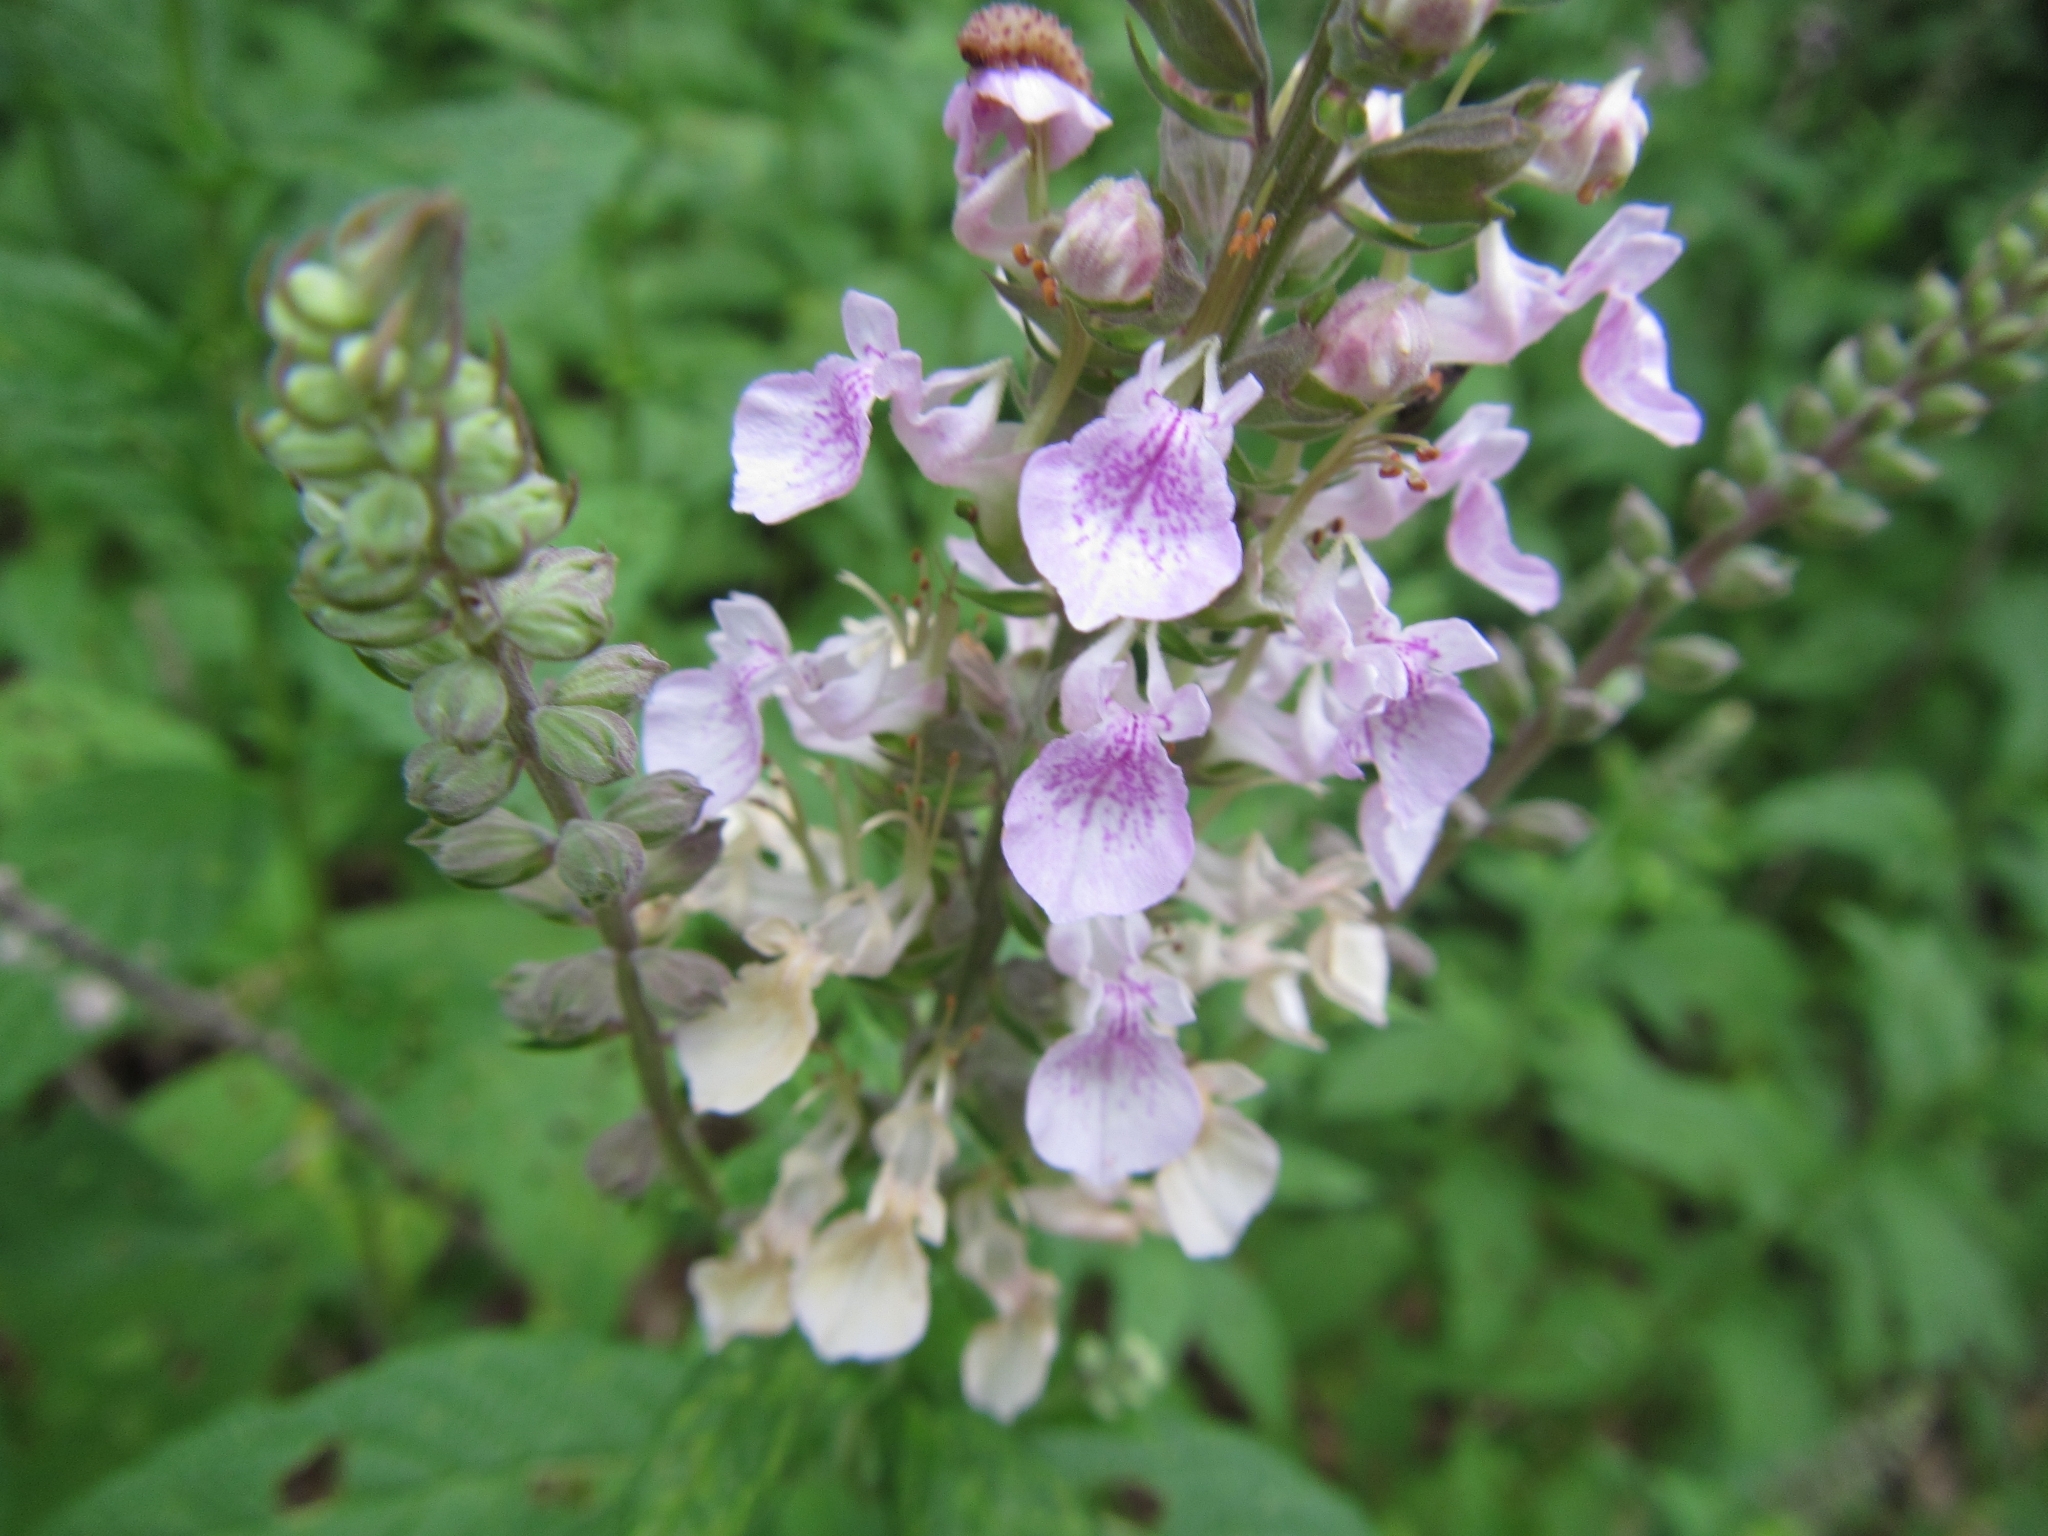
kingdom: Plantae
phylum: Tracheophyta
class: Magnoliopsida
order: Lamiales
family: Lamiaceae
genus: Teucrium
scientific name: Teucrium canadense
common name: American germander
